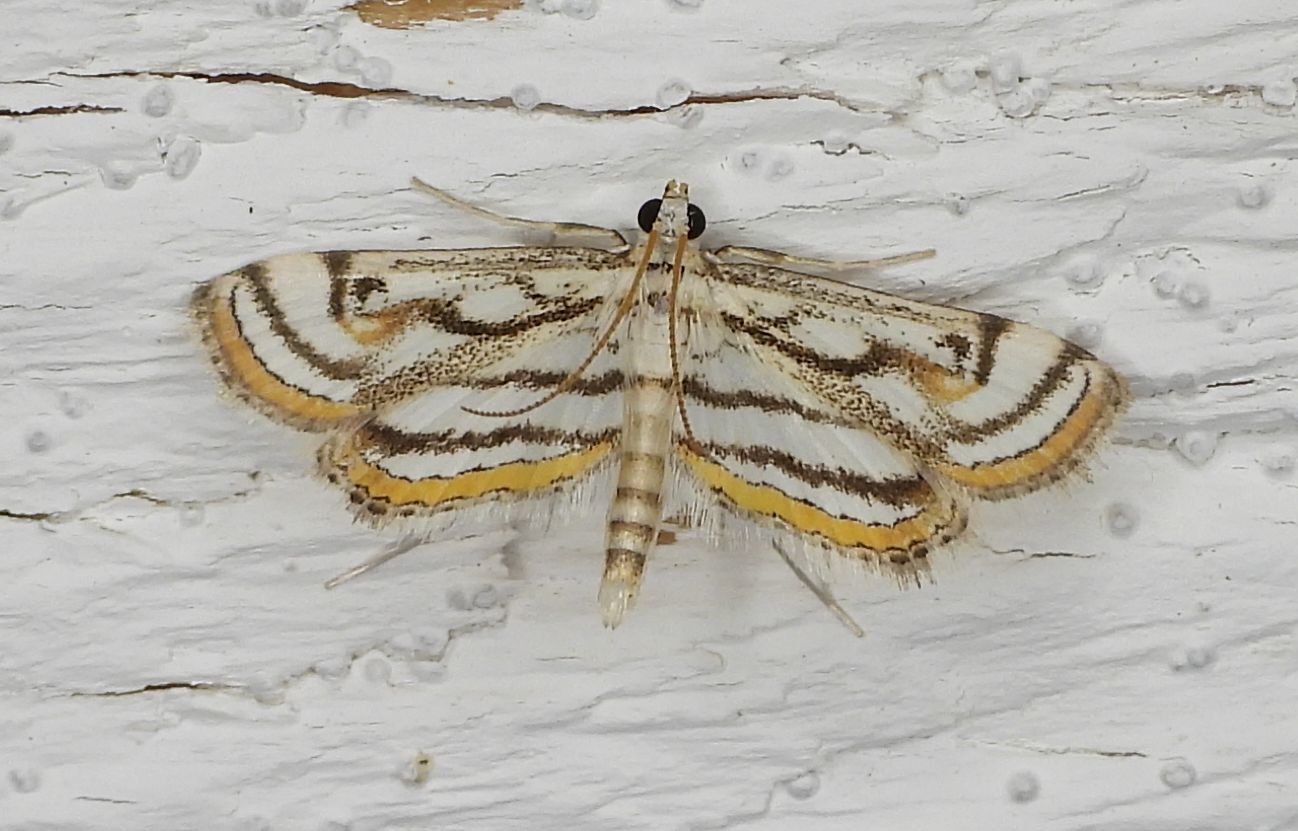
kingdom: Animalia
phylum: Arthropoda
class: Insecta
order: Lepidoptera
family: Crambidae
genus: Parapoynx
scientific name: Parapoynx badiusalis
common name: Chestnut-marked pondweed moth
